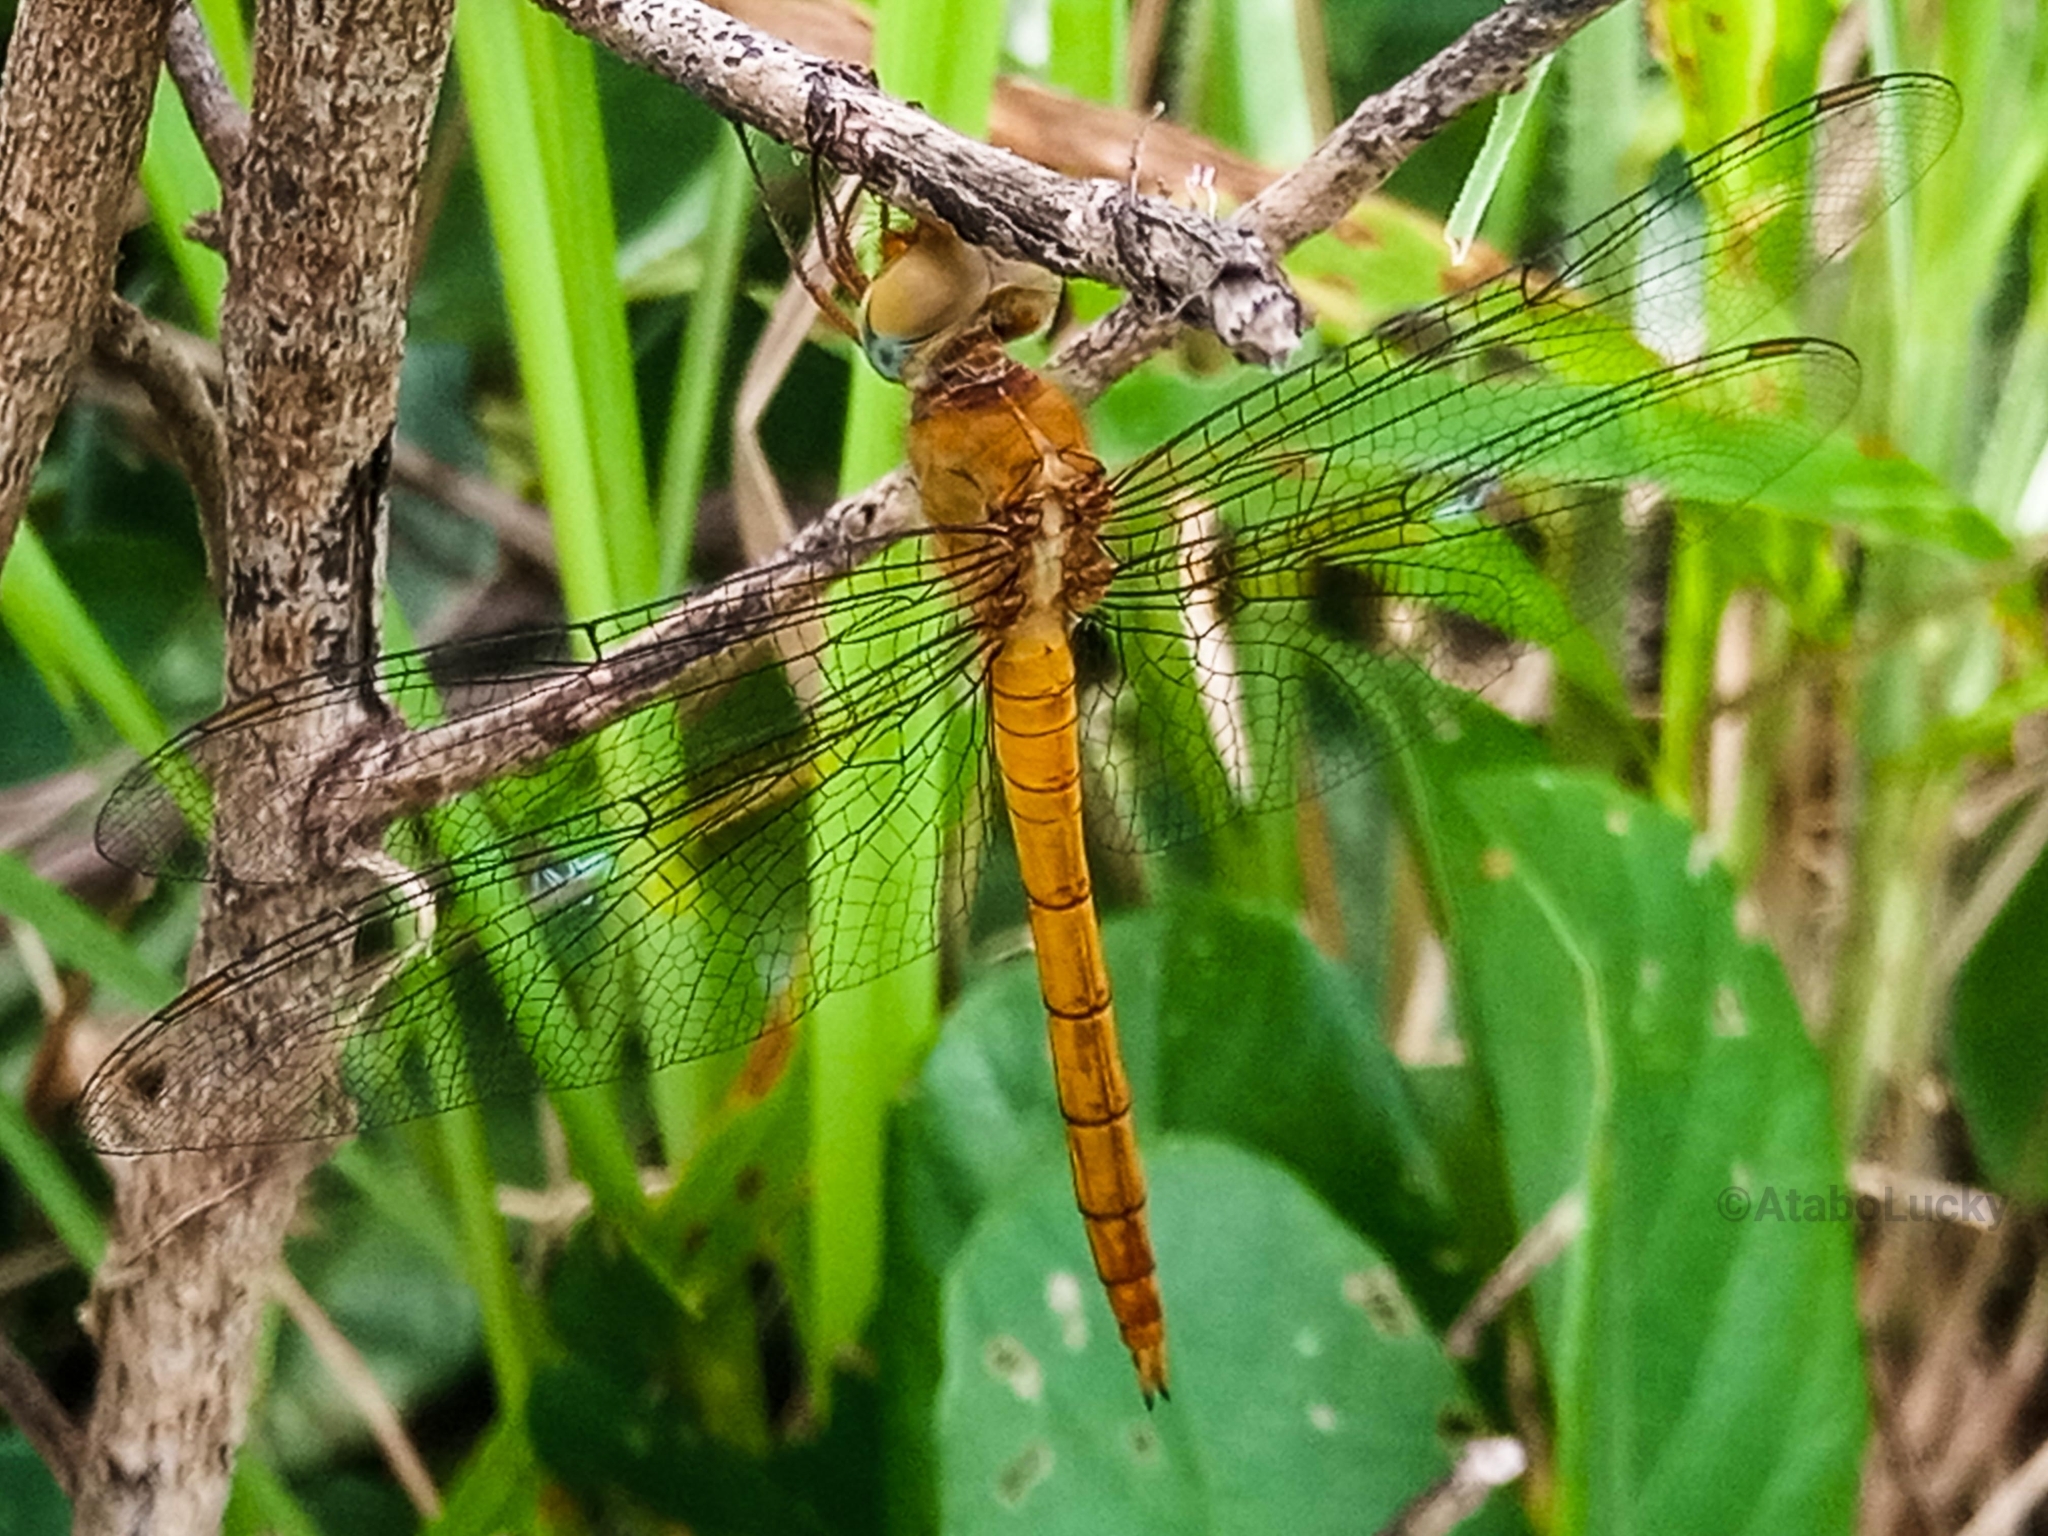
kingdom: Animalia
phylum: Arthropoda
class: Insecta
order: Odonata
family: Libellulidae
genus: Tholymis
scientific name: Tholymis tillarga
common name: Coral-tailed cloud wing
